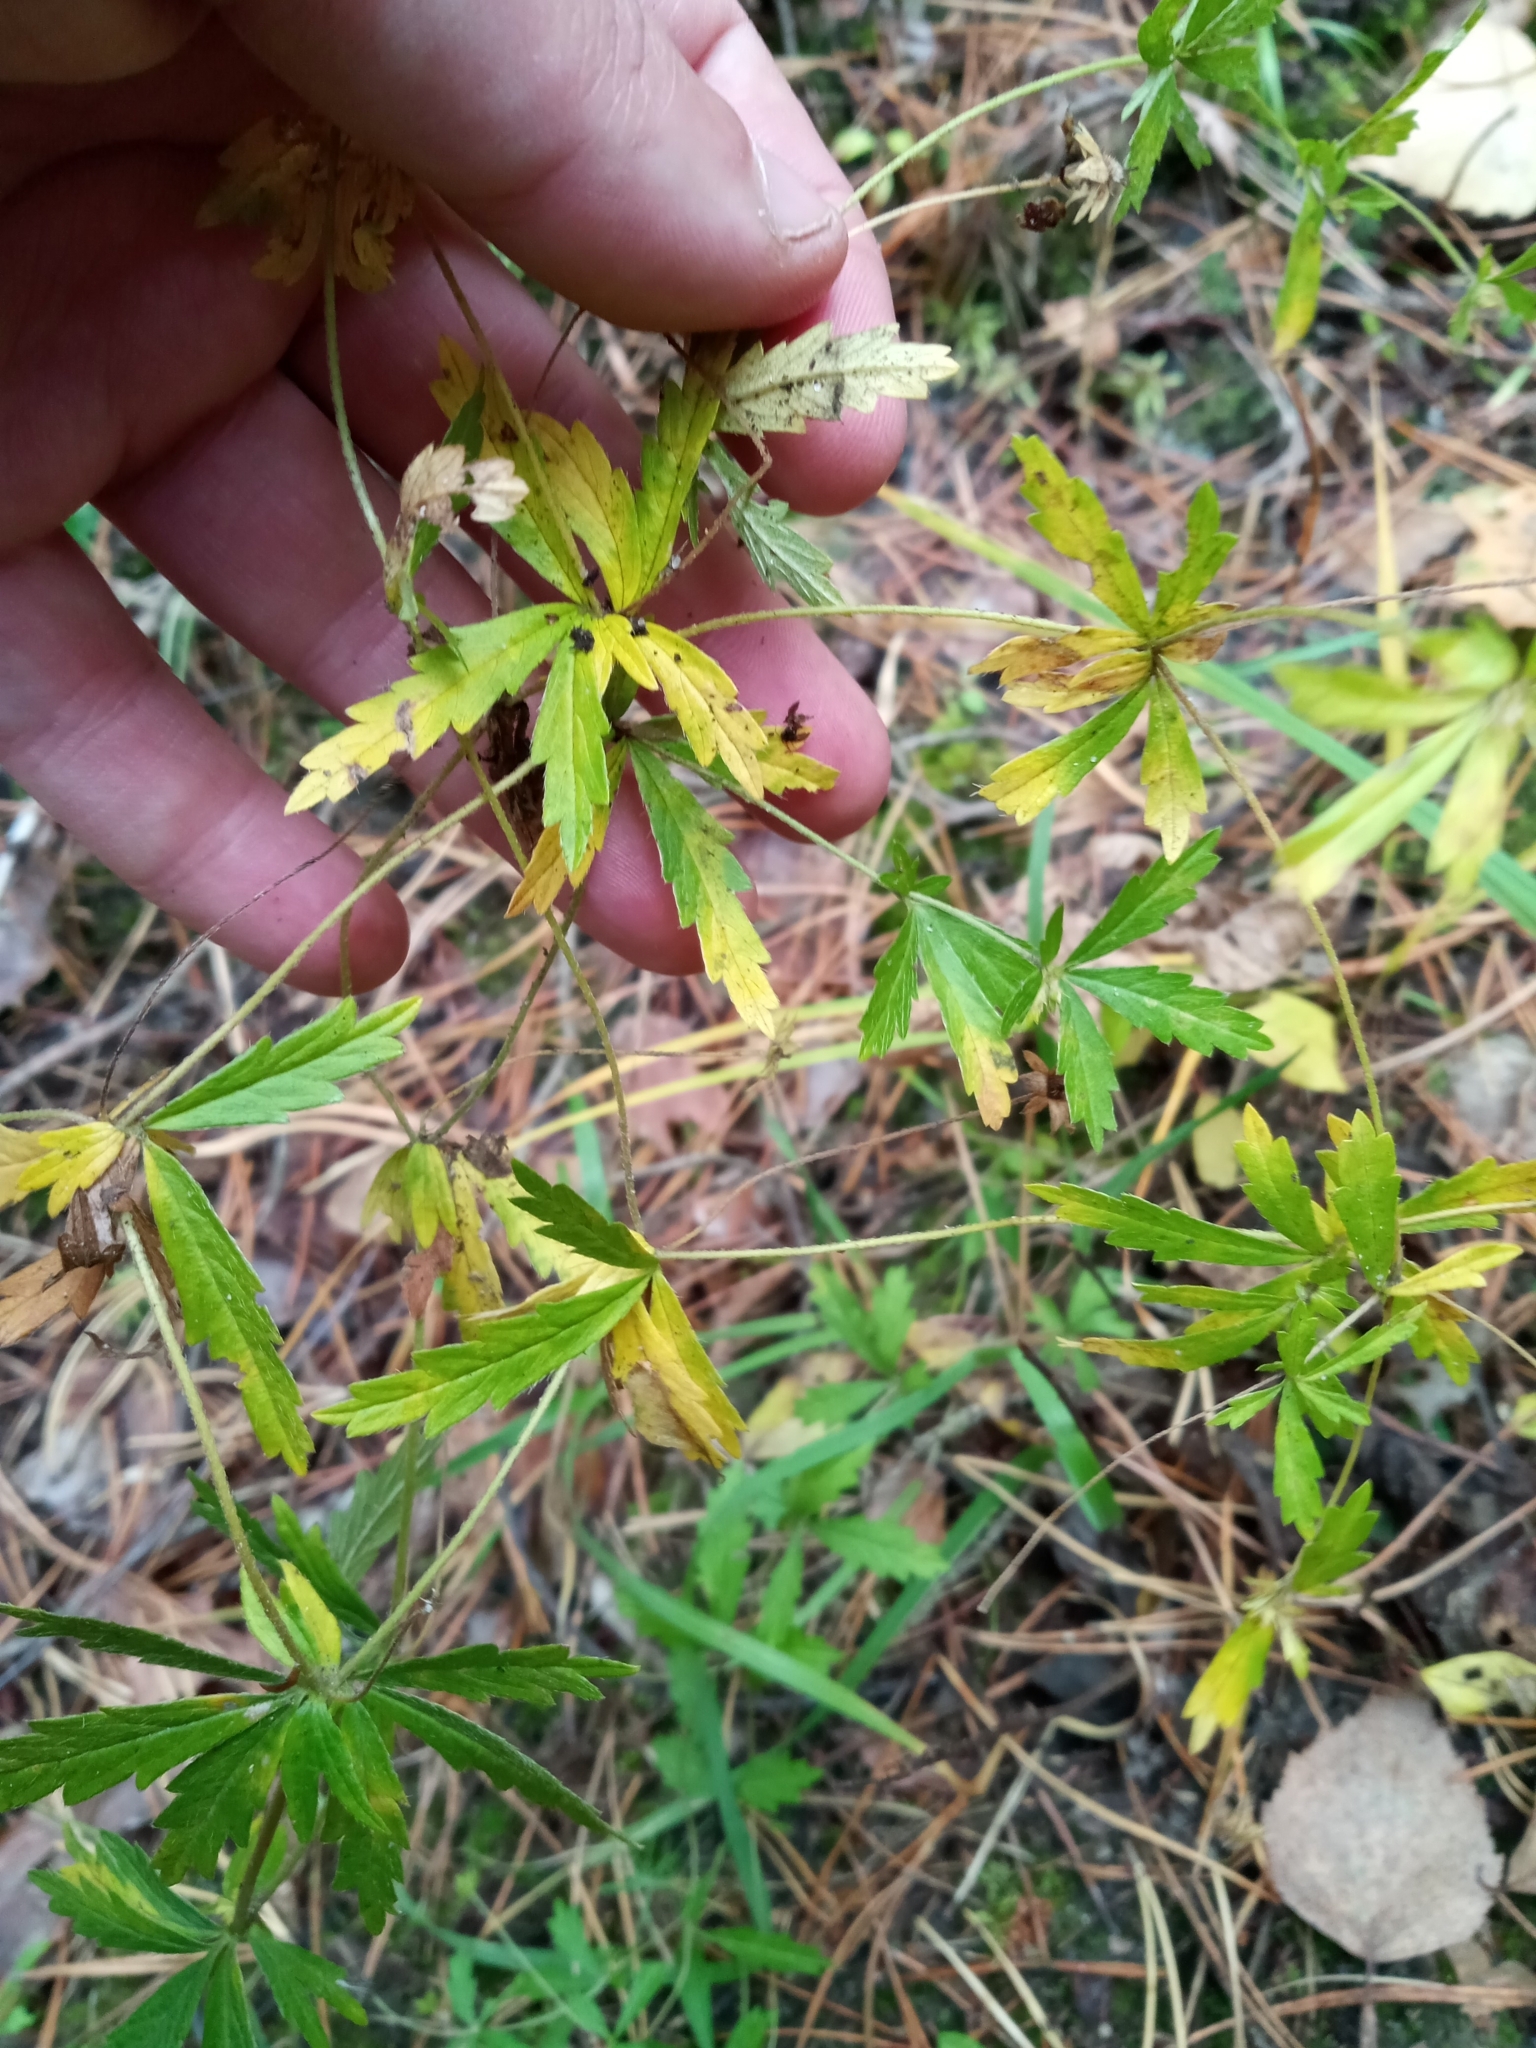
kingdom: Plantae
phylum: Tracheophyta
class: Magnoliopsida
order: Rosales
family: Rosaceae
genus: Potentilla
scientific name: Potentilla erecta
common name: Tormentil
